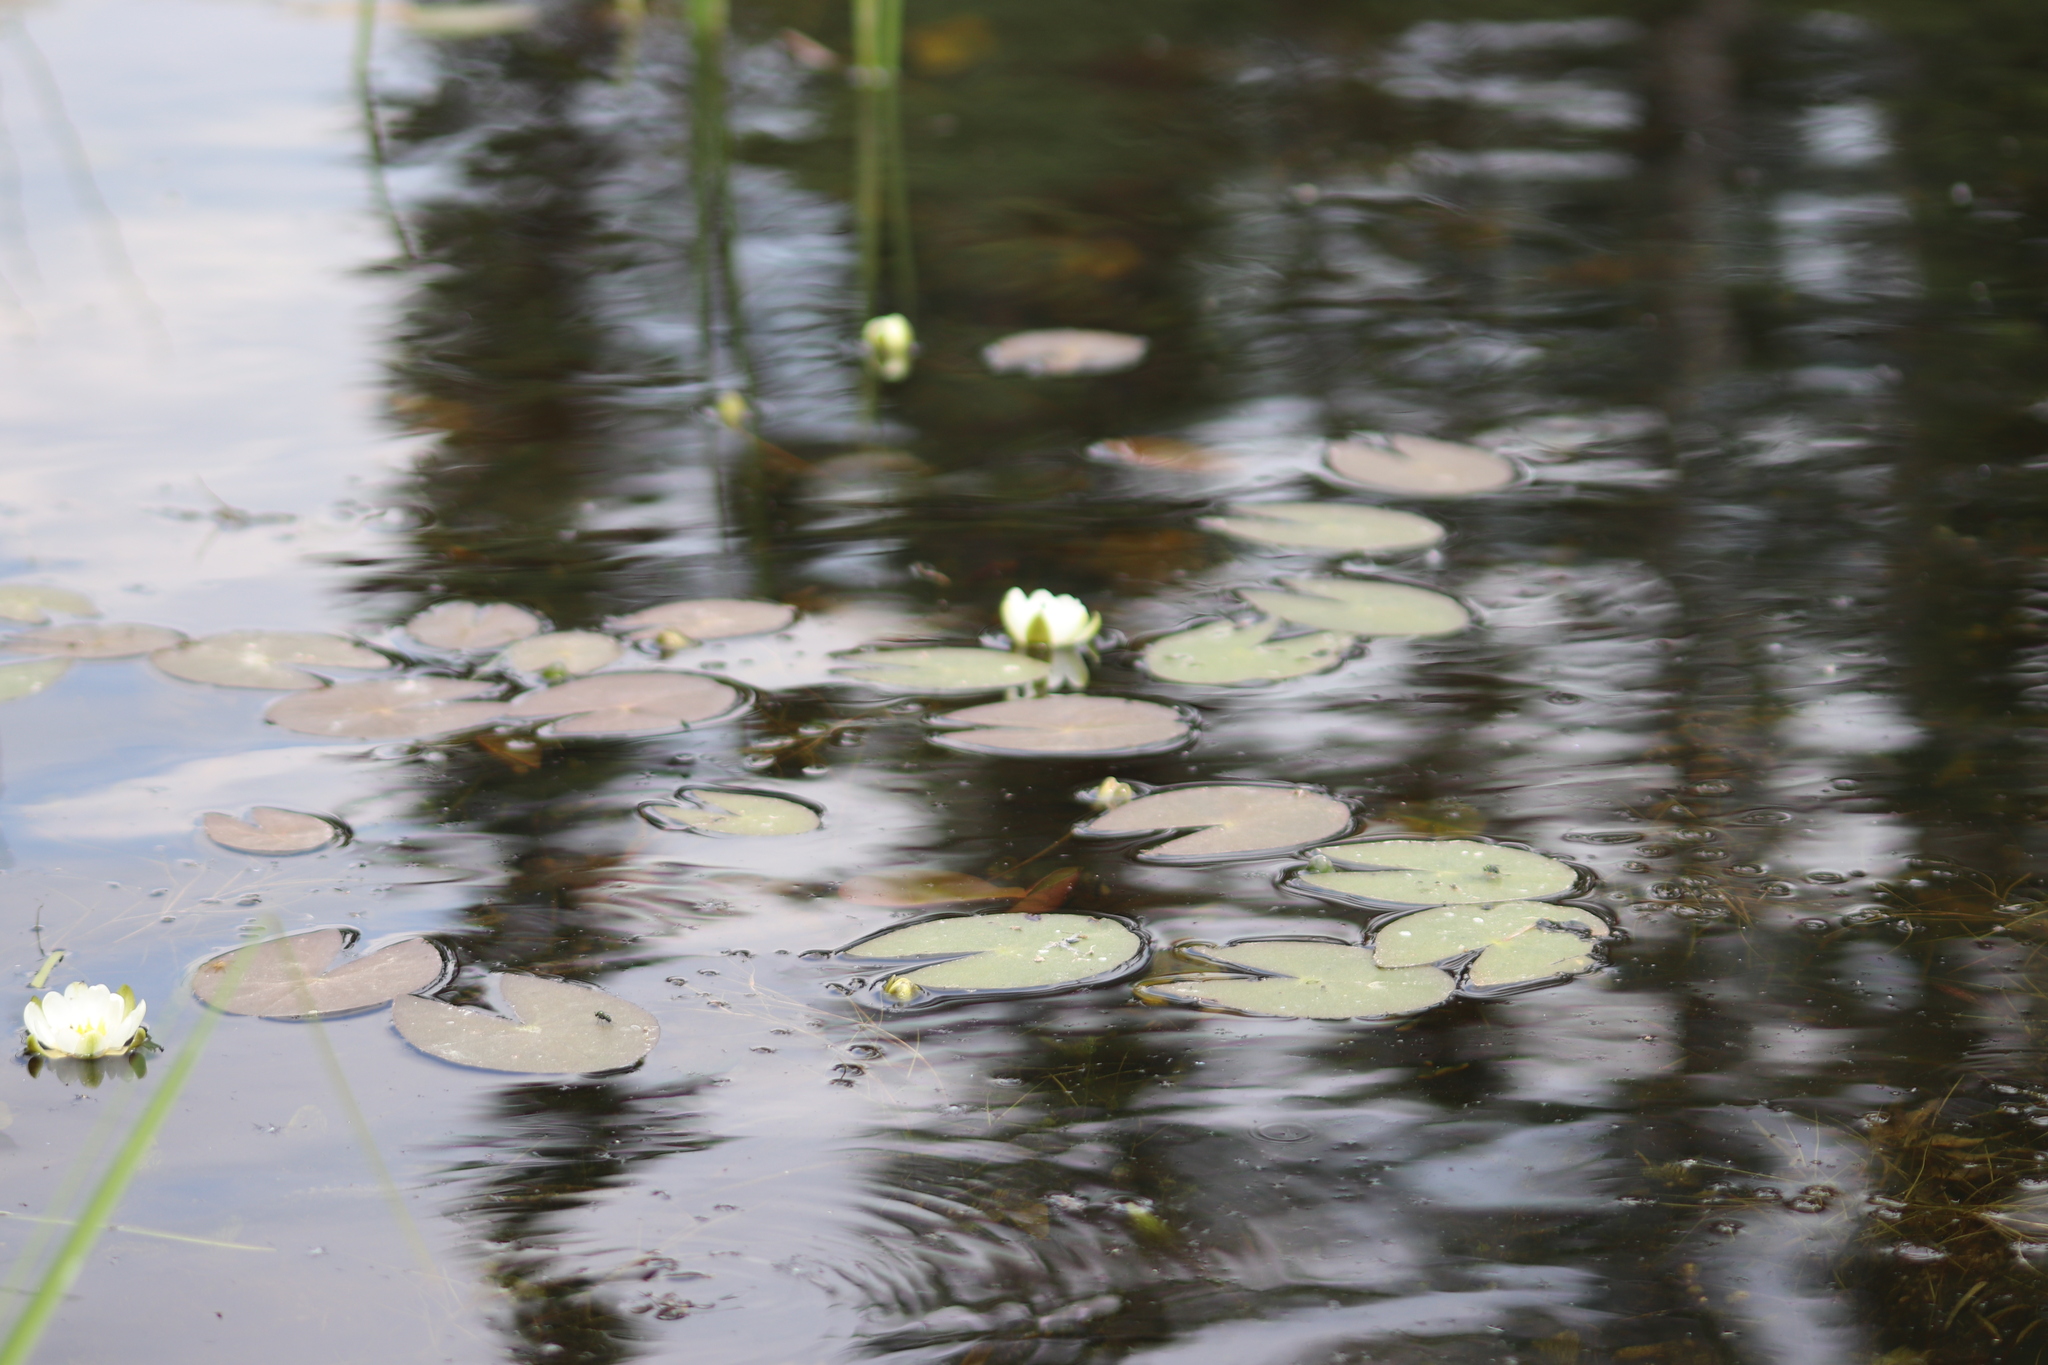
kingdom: Plantae
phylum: Tracheophyta
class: Magnoliopsida
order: Nymphaeales
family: Nymphaeaceae
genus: Nymphaea
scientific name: Nymphaea odorata
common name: Fragrant water-lily
